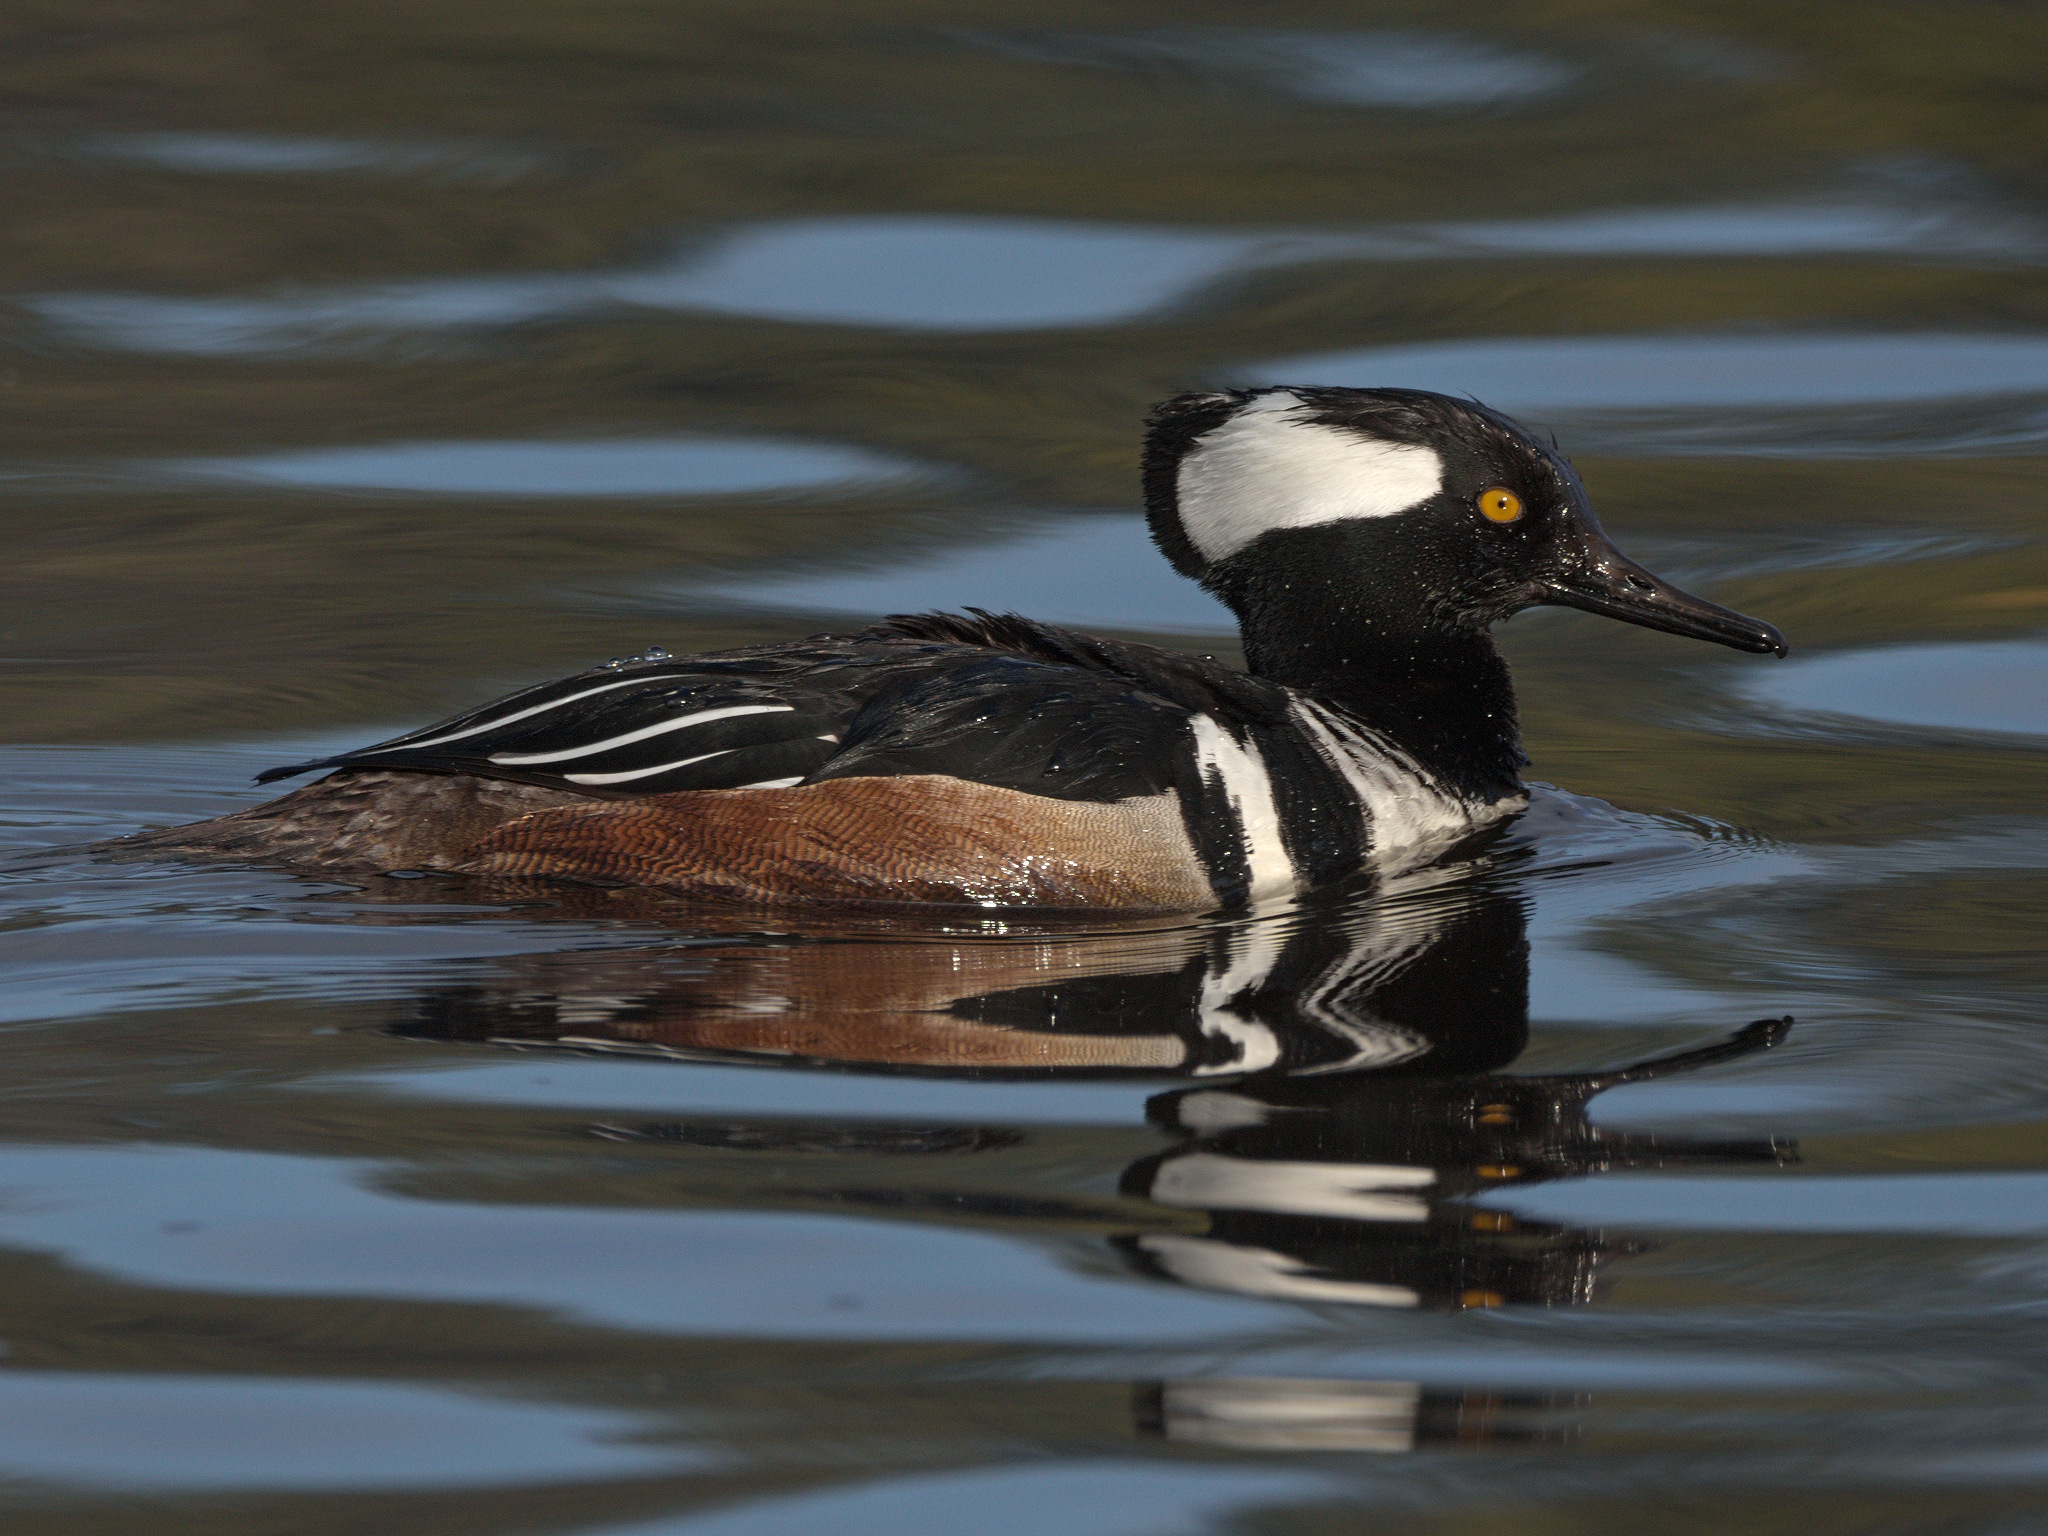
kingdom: Animalia
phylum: Chordata
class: Aves
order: Anseriformes
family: Anatidae
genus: Lophodytes
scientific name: Lophodytes cucullatus
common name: Hooded merganser
